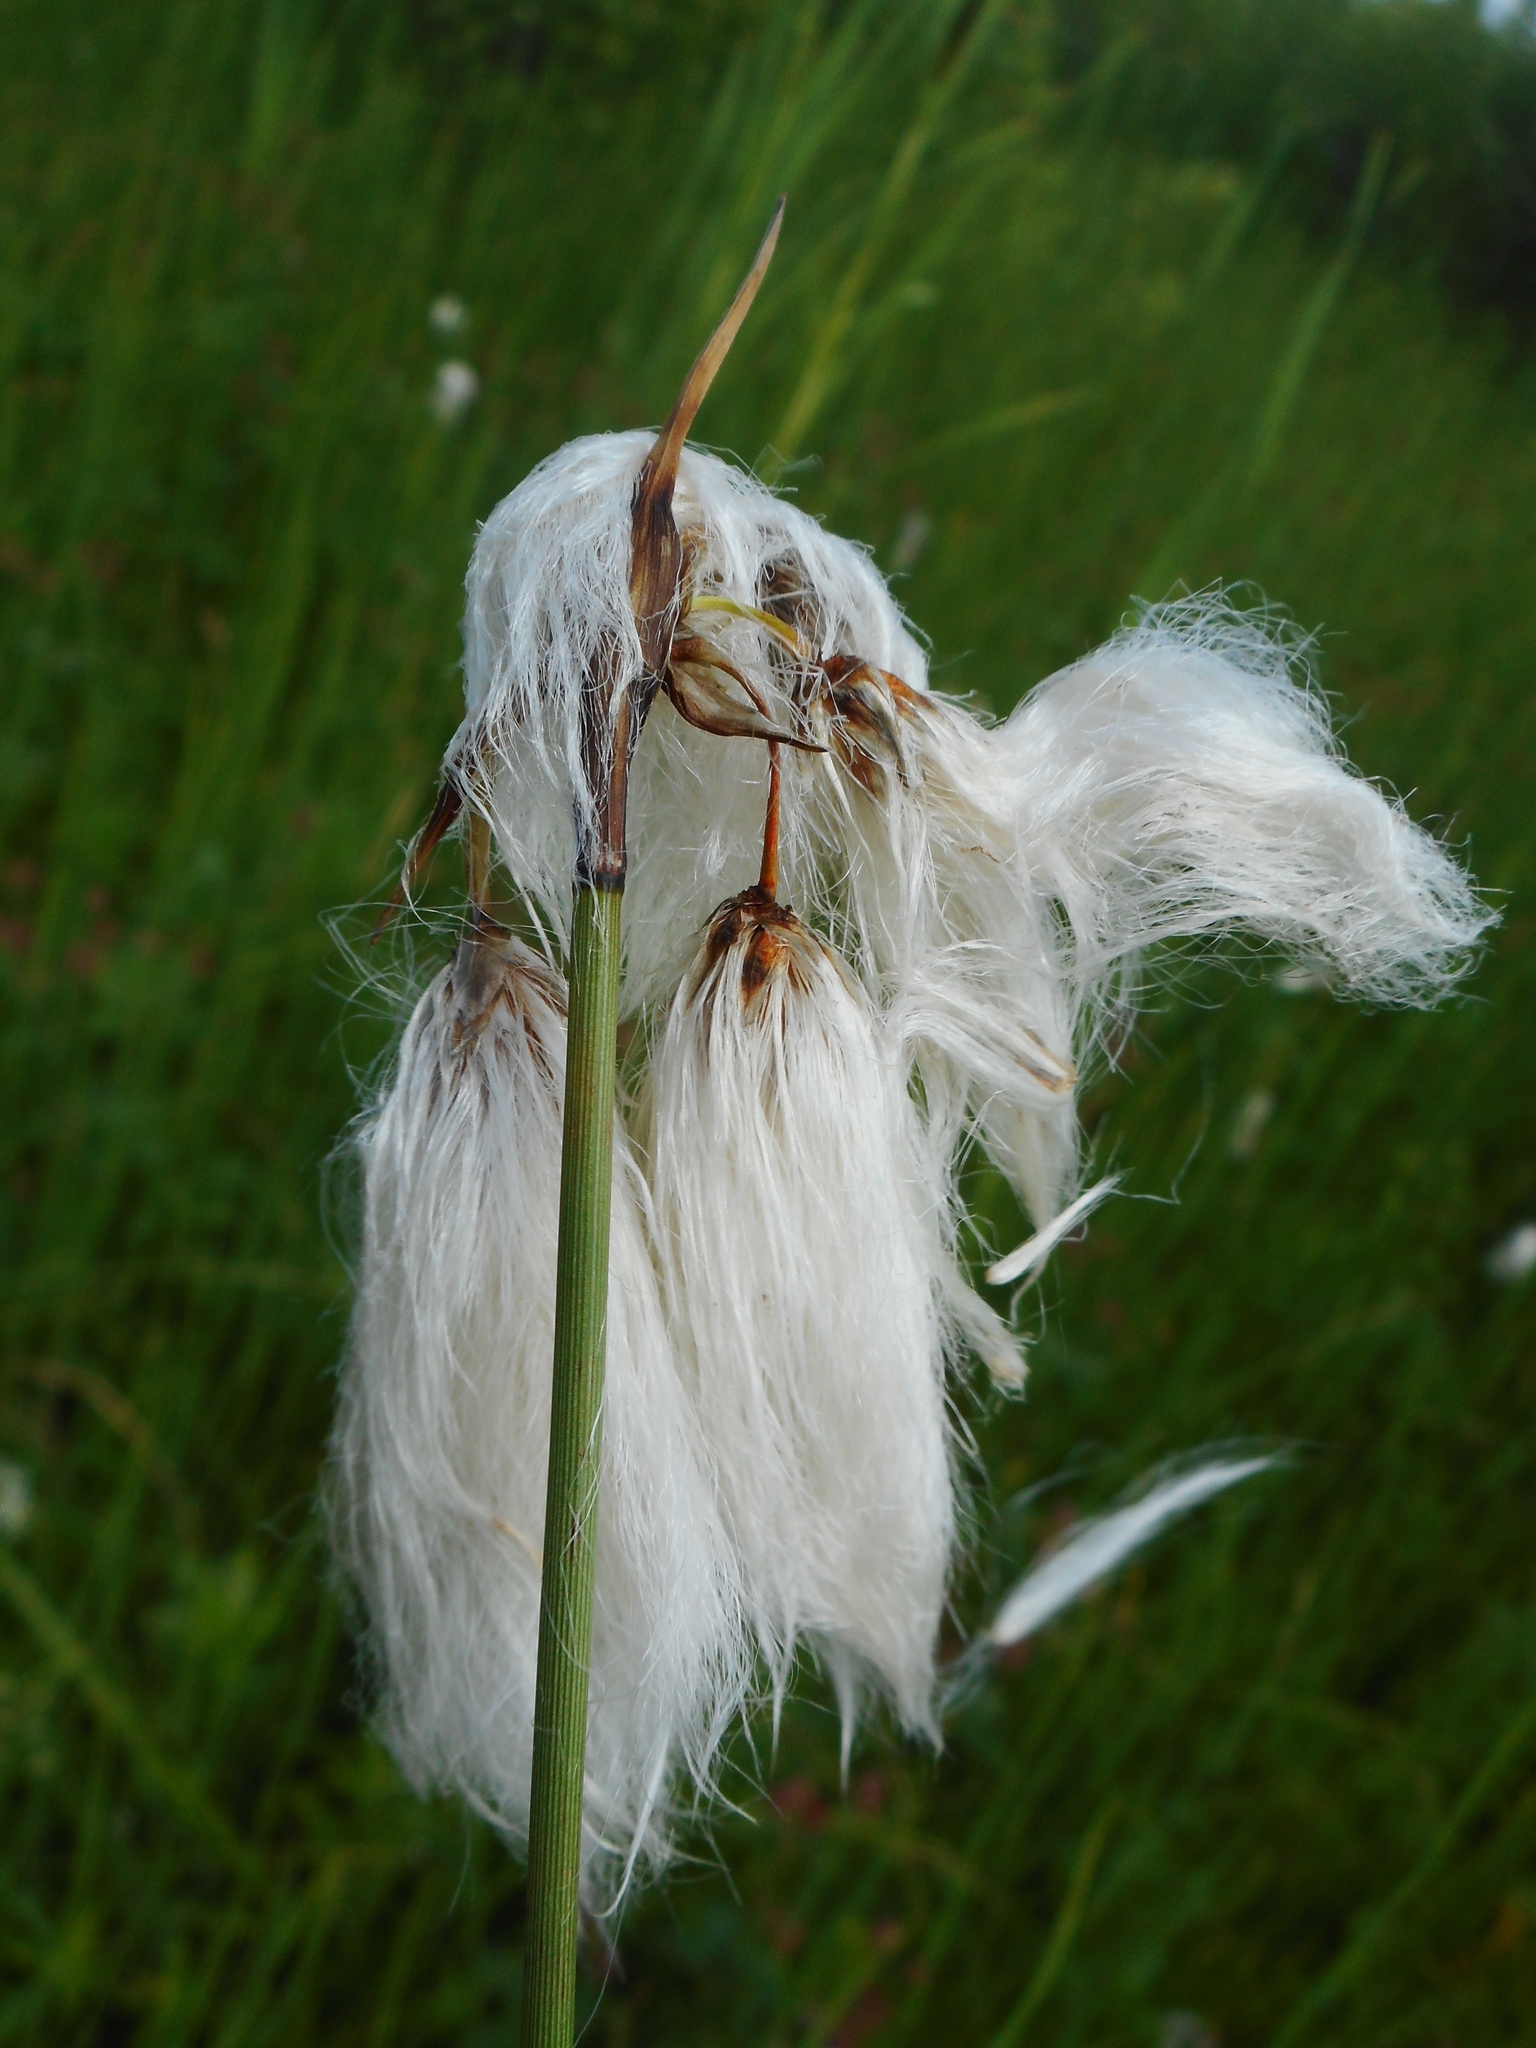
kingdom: Plantae
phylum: Tracheophyta
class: Liliopsida
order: Poales
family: Cyperaceae
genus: Eriophorum
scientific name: Eriophorum angustifolium
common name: Common cottongrass
